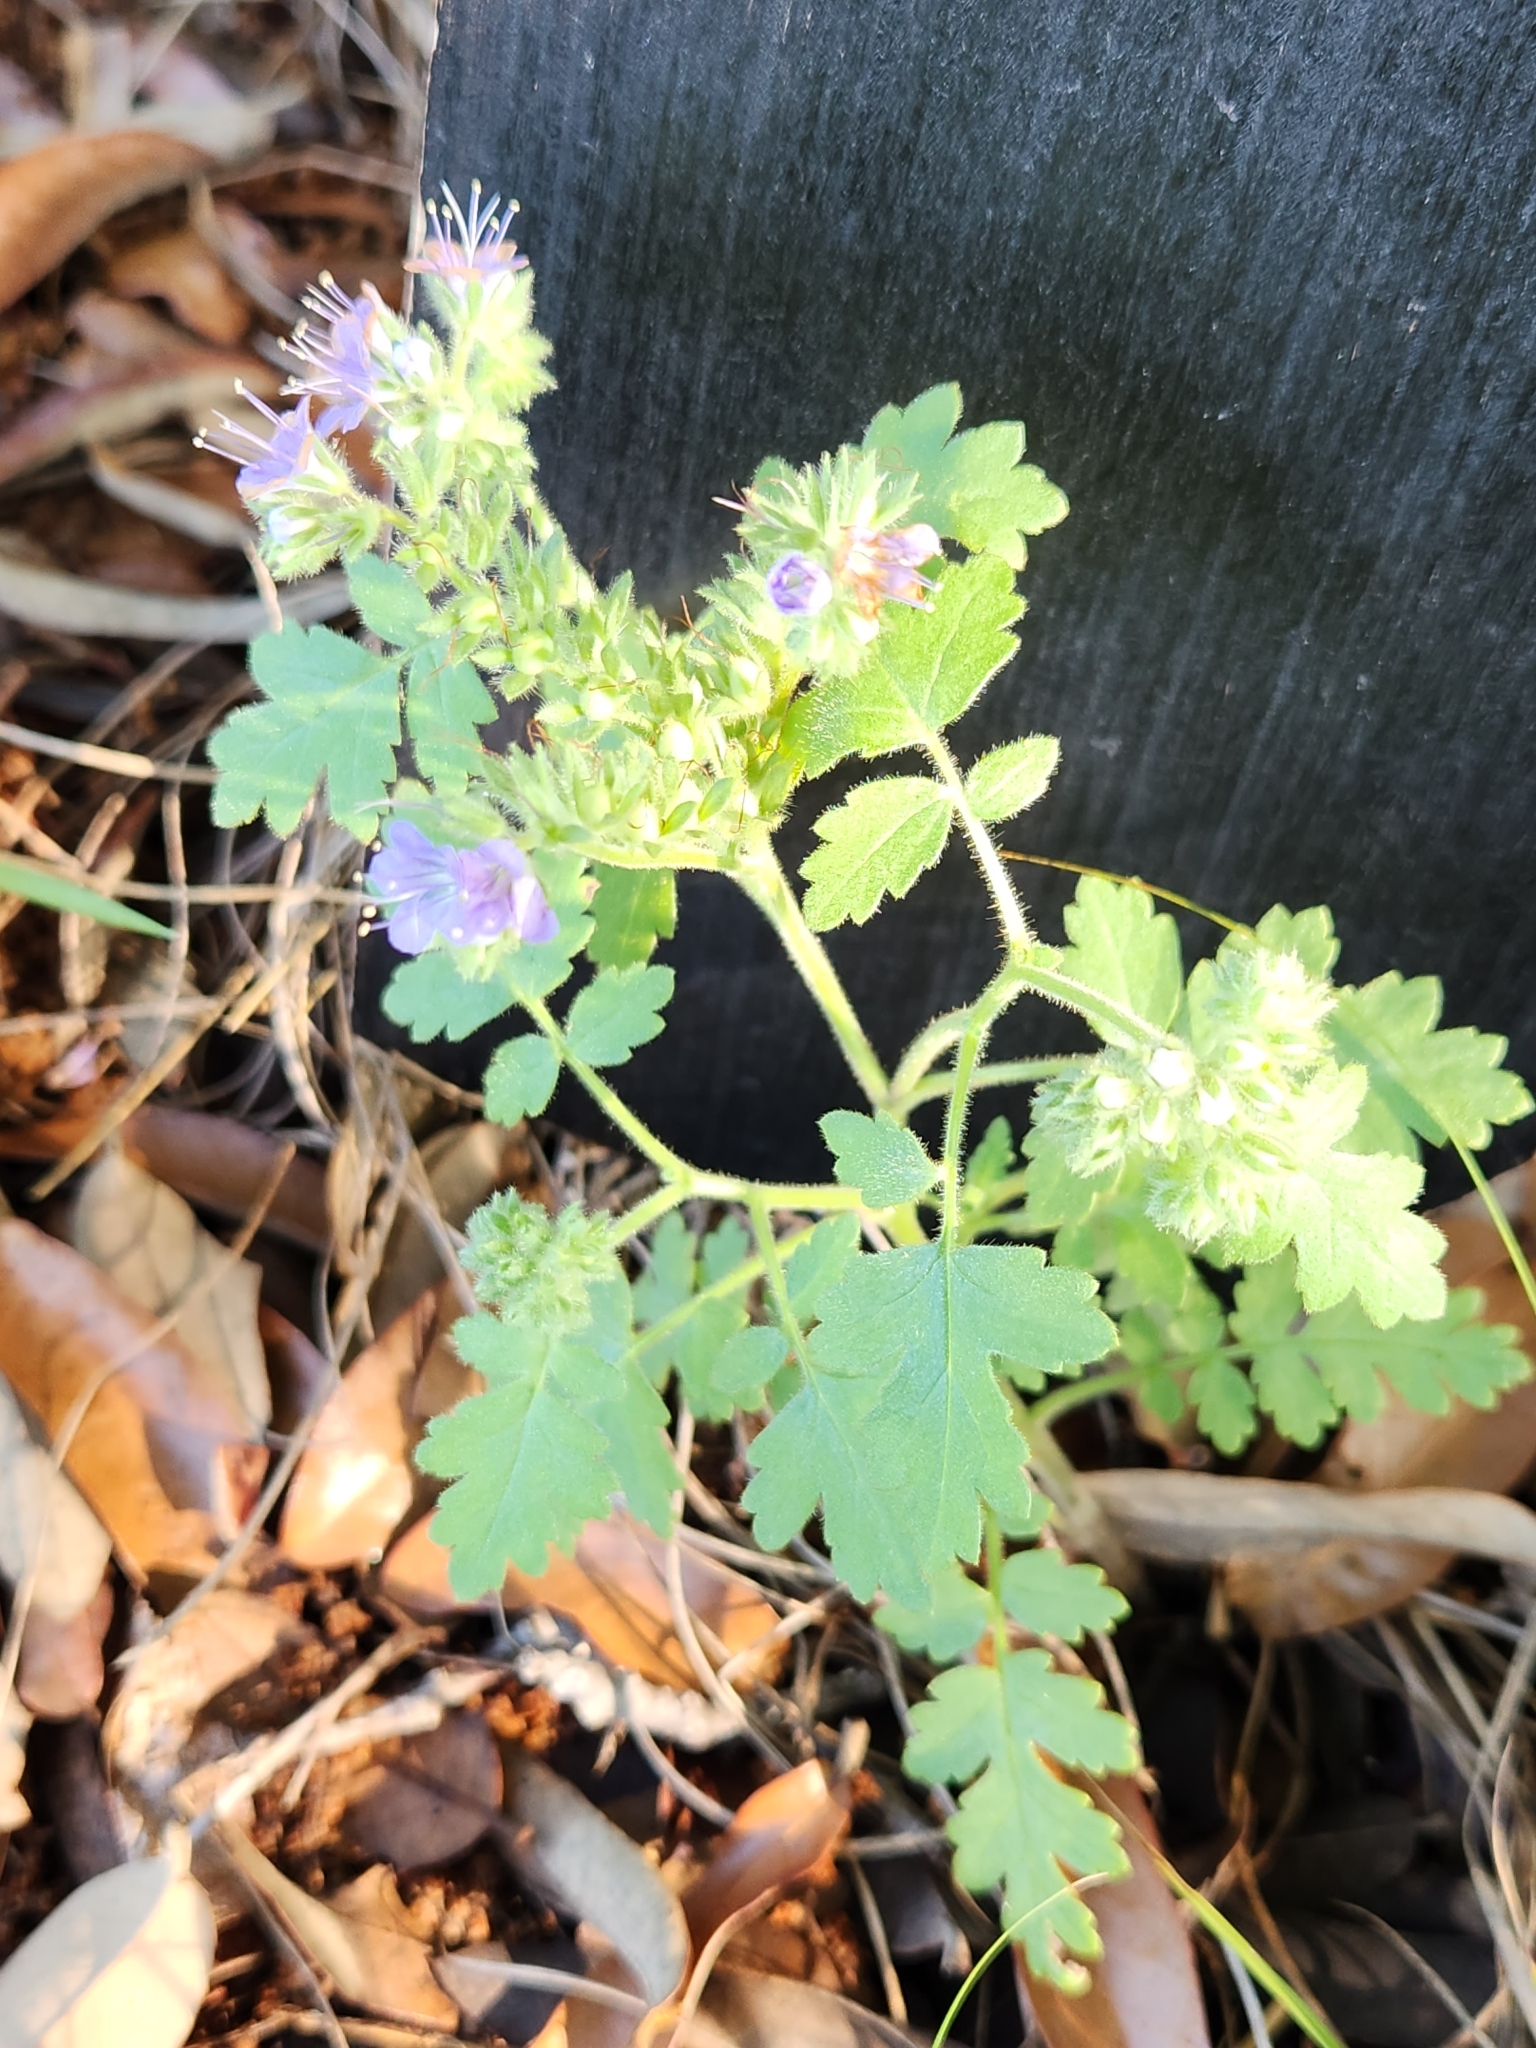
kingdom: Plantae
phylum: Tracheophyta
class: Magnoliopsida
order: Boraginales
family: Hydrophyllaceae
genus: Phacelia
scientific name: Phacelia congesta
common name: Blue curls
